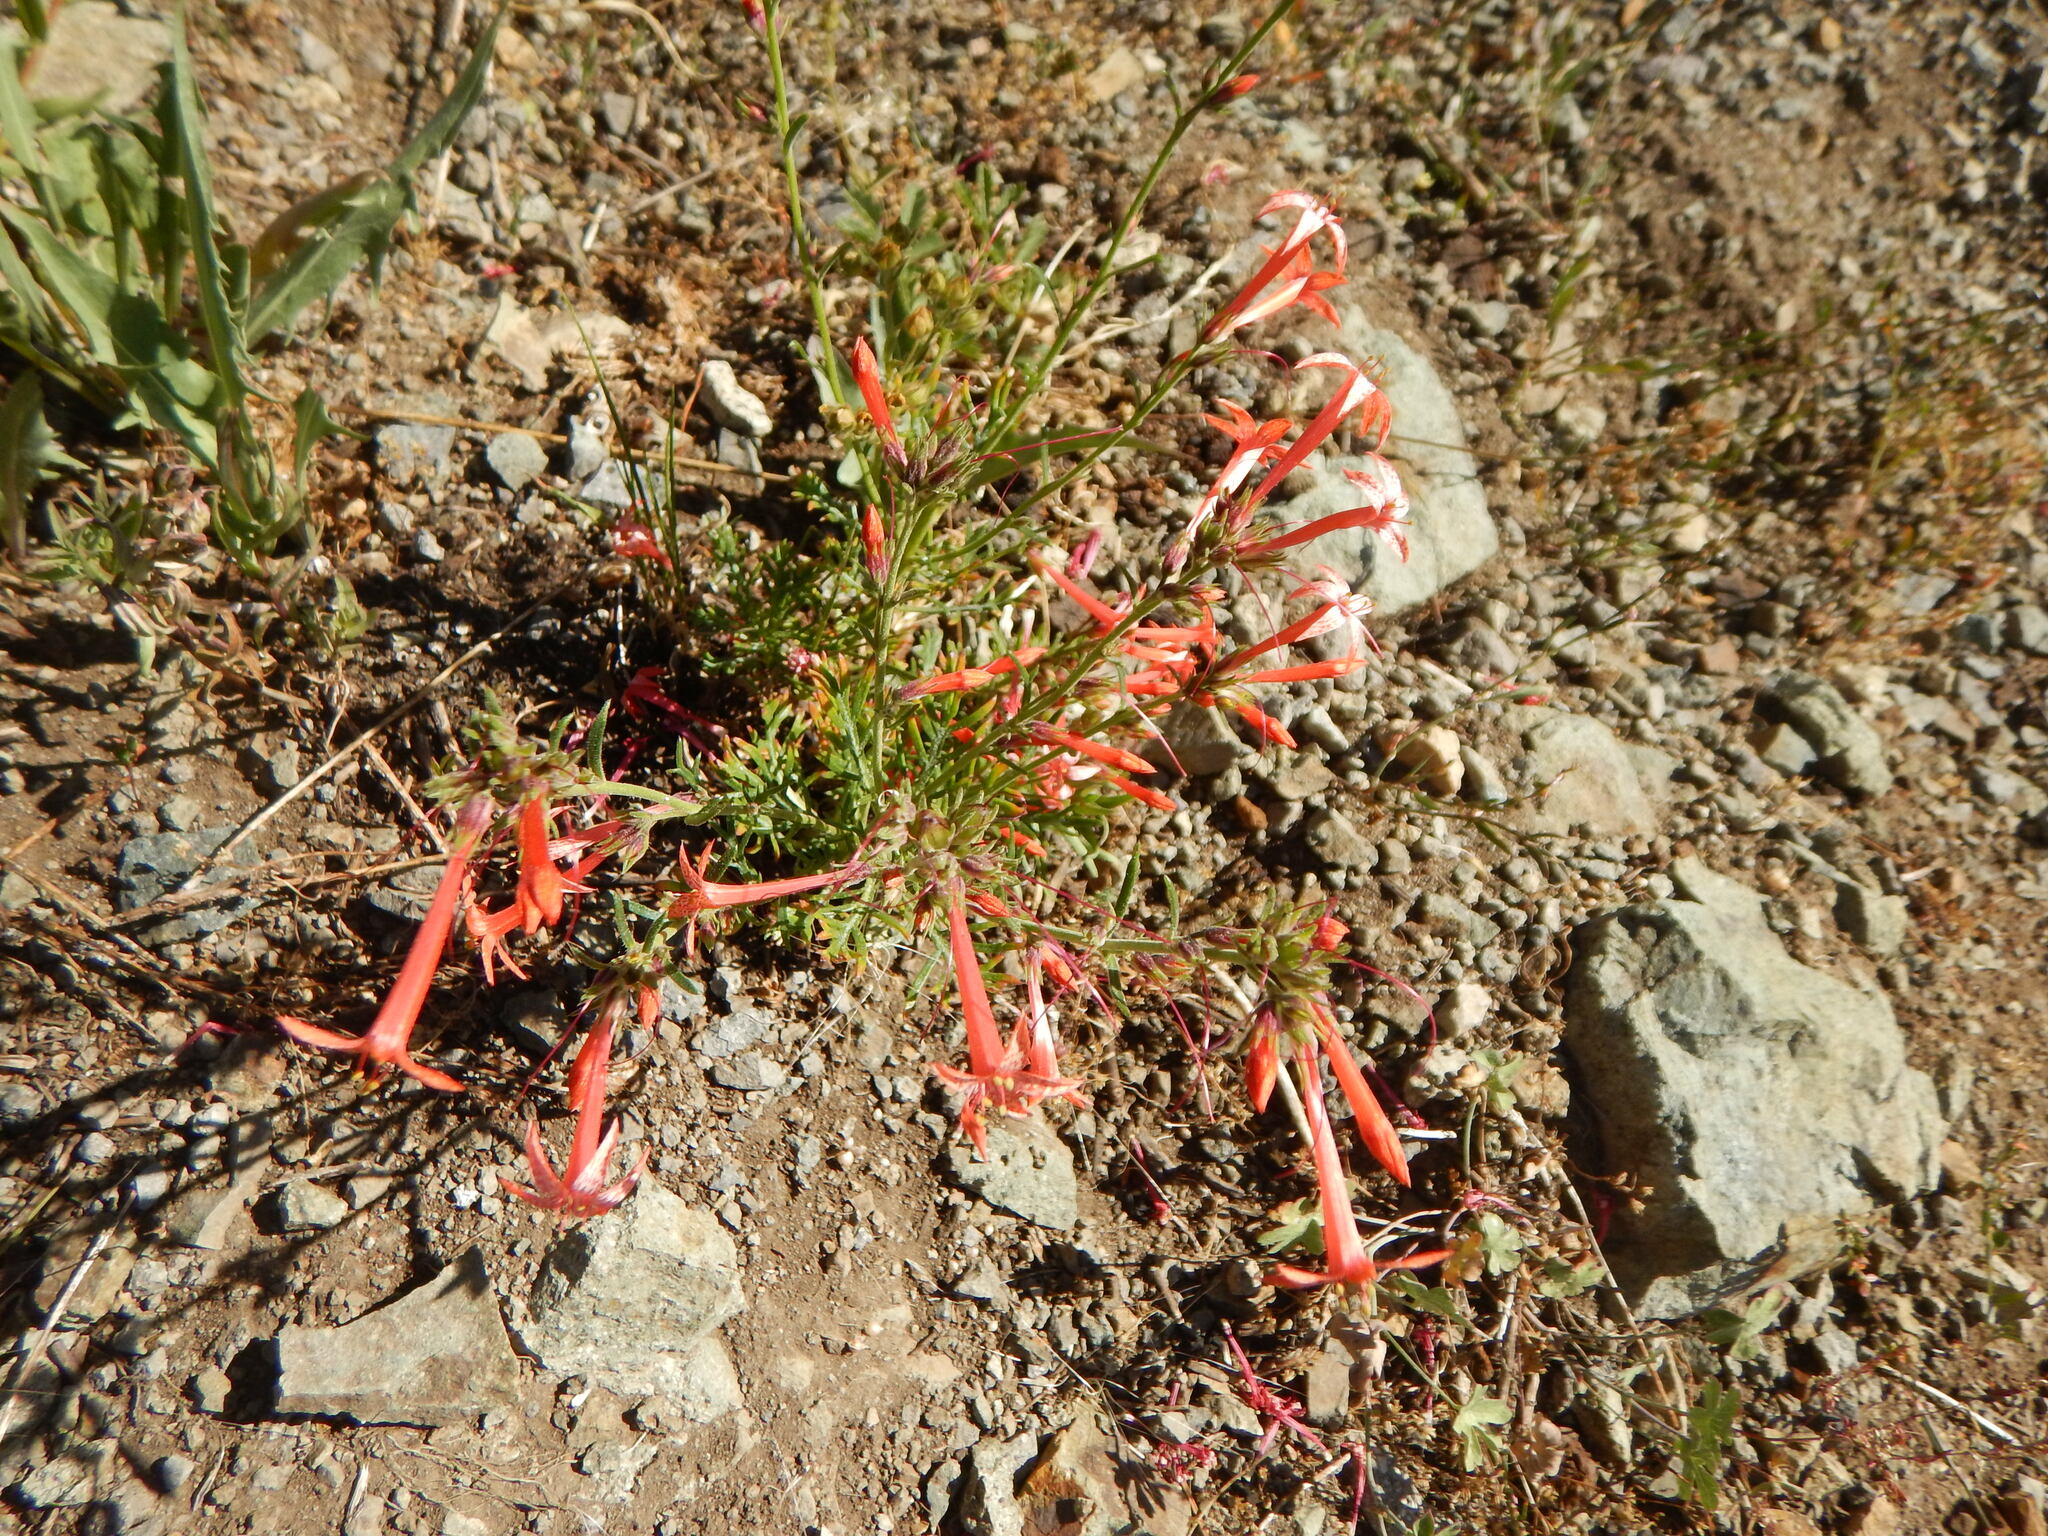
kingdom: Plantae
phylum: Tracheophyta
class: Magnoliopsida
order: Ericales
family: Polemoniaceae
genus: Ipomopsis
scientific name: Ipomopsis aggregata
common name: Scarlet gilia
